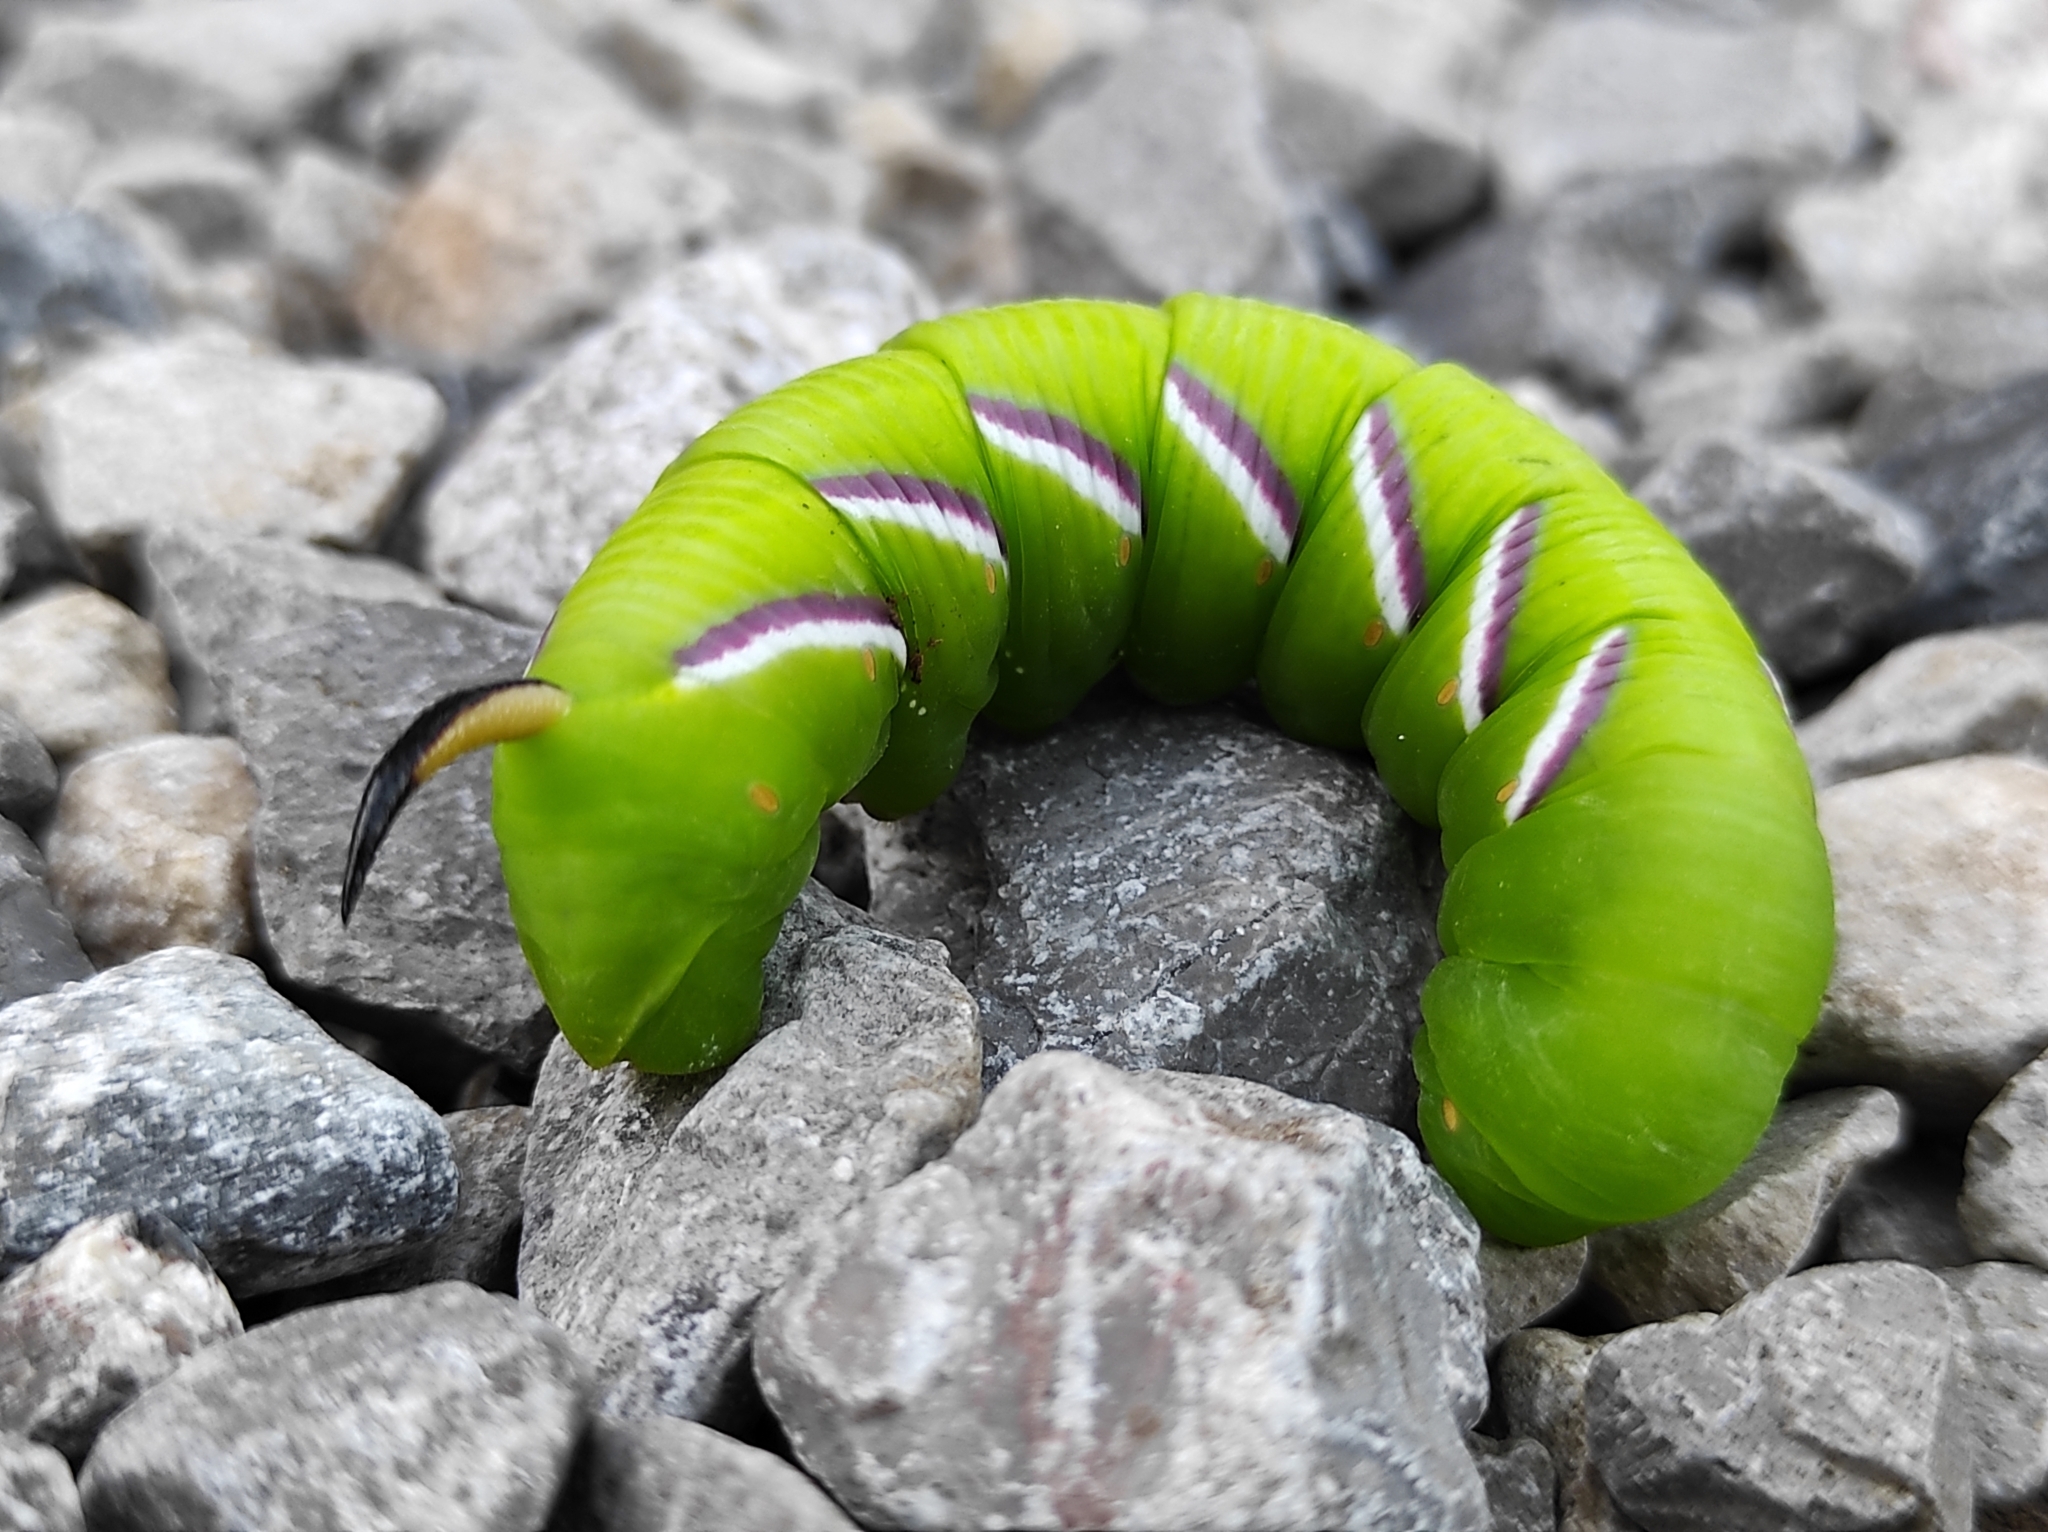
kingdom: Animalia
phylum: Arthropoda
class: Insecta
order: Lepidoptera
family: Sphingidae
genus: Sphinx
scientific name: Sphinx ligustri
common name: Privet hawk-moth
